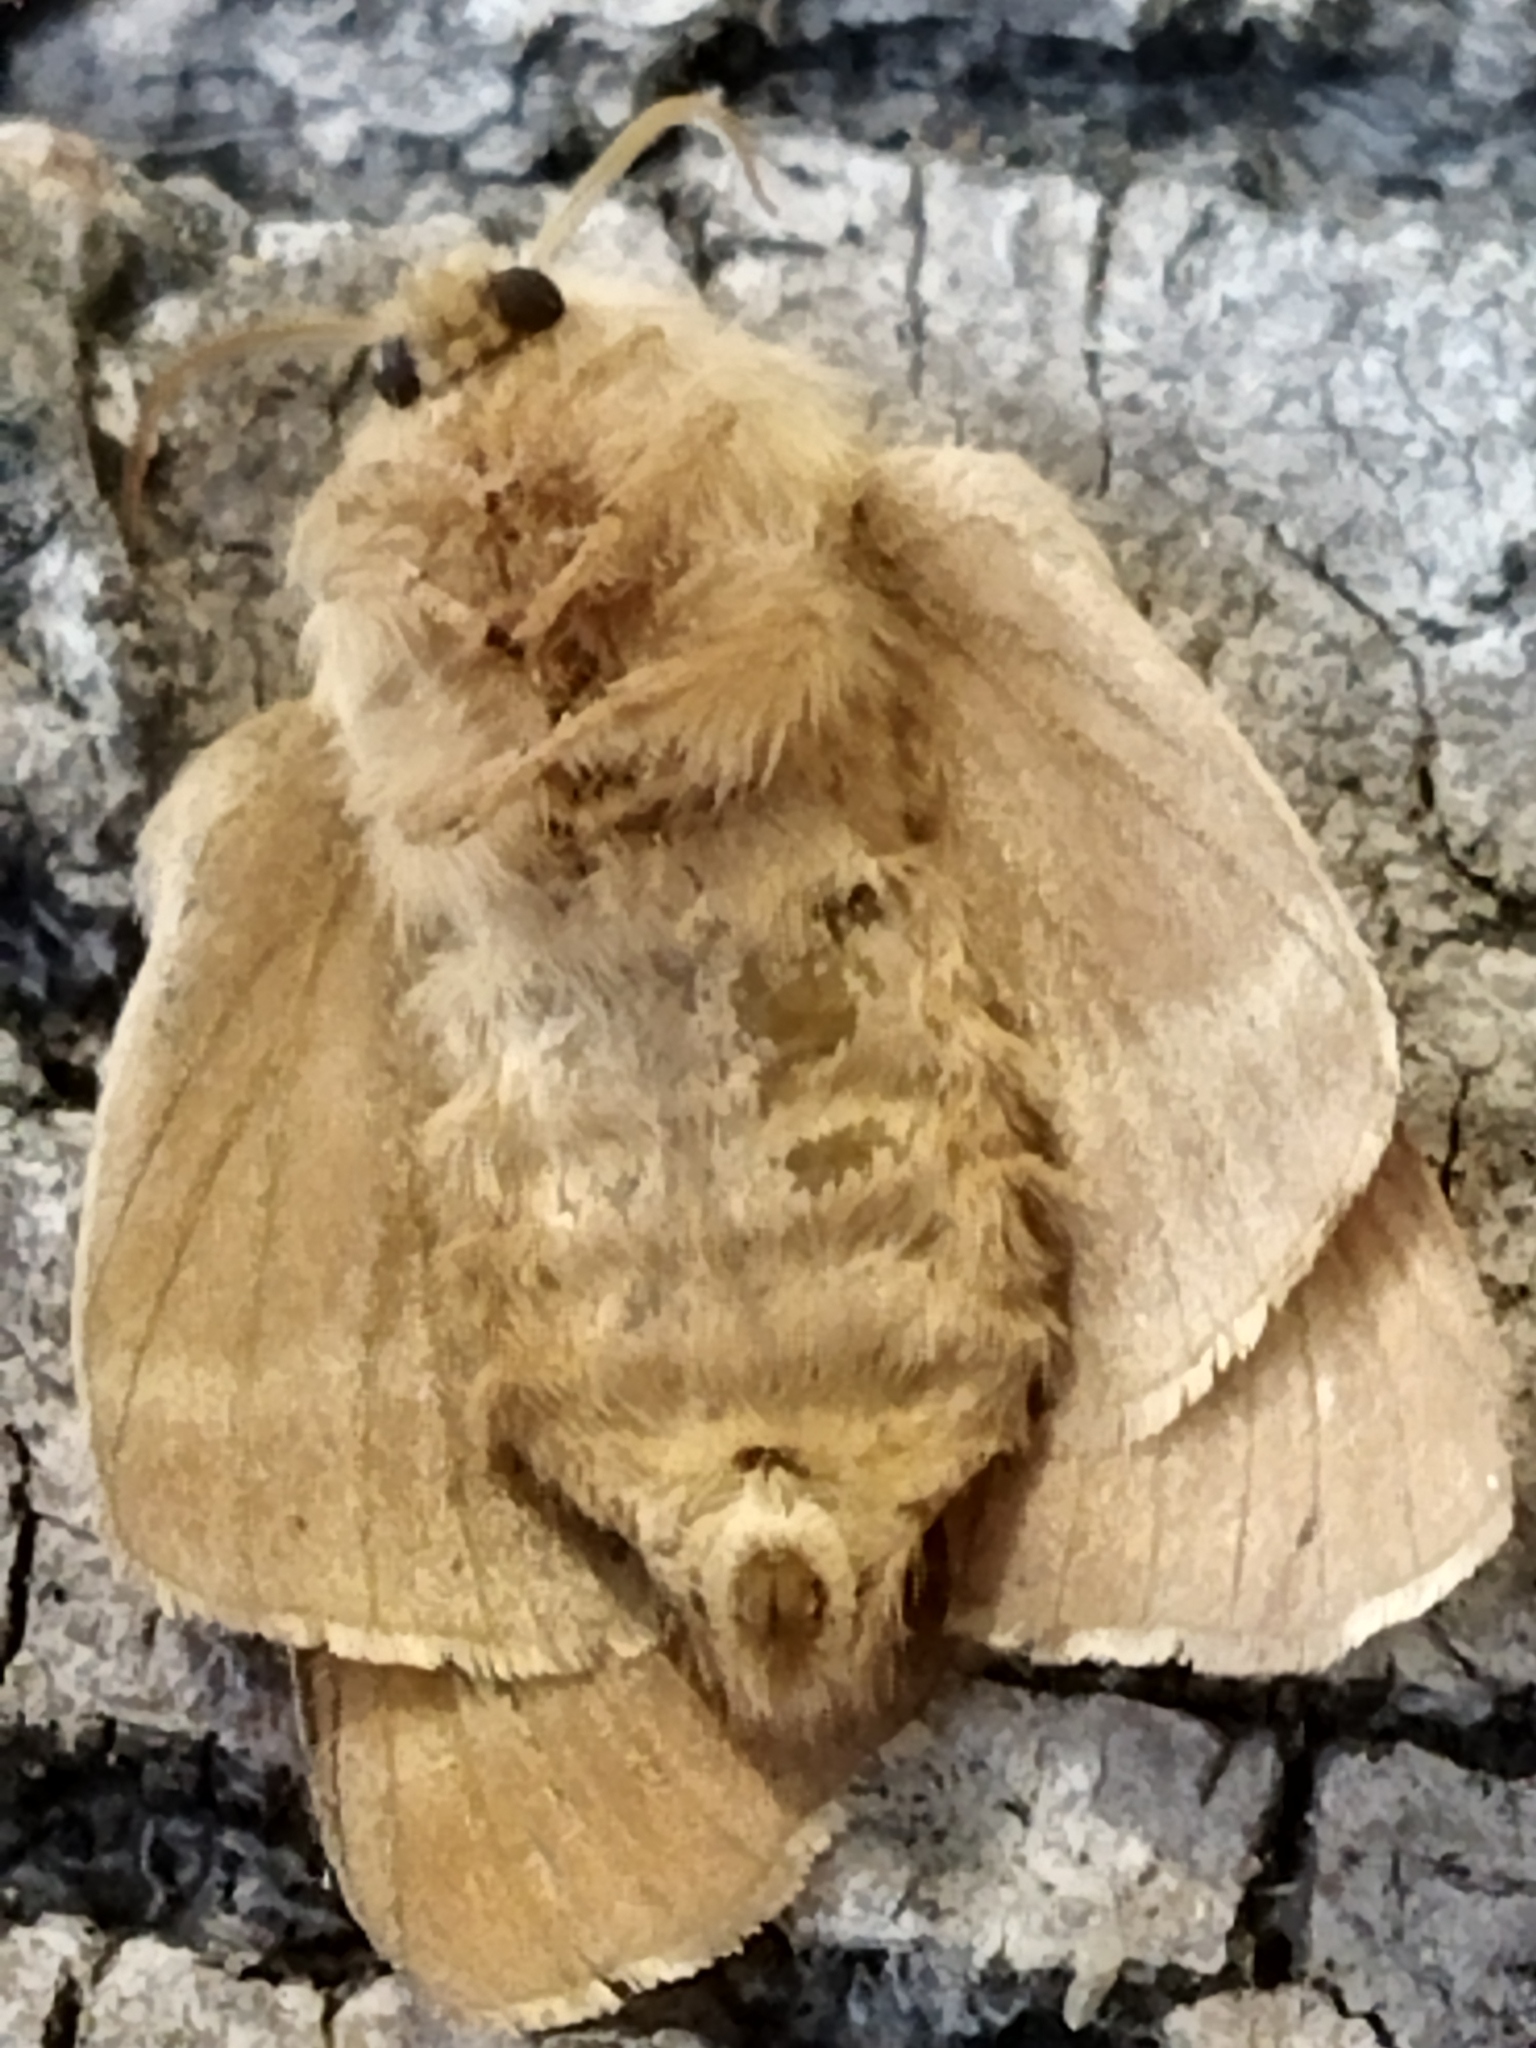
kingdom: Animalia
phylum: Arthropoda
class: Insecta
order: Lepidoptera
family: Lasiocampidae
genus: Malacosoma
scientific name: Malacosoma castrense
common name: Ground lackey
